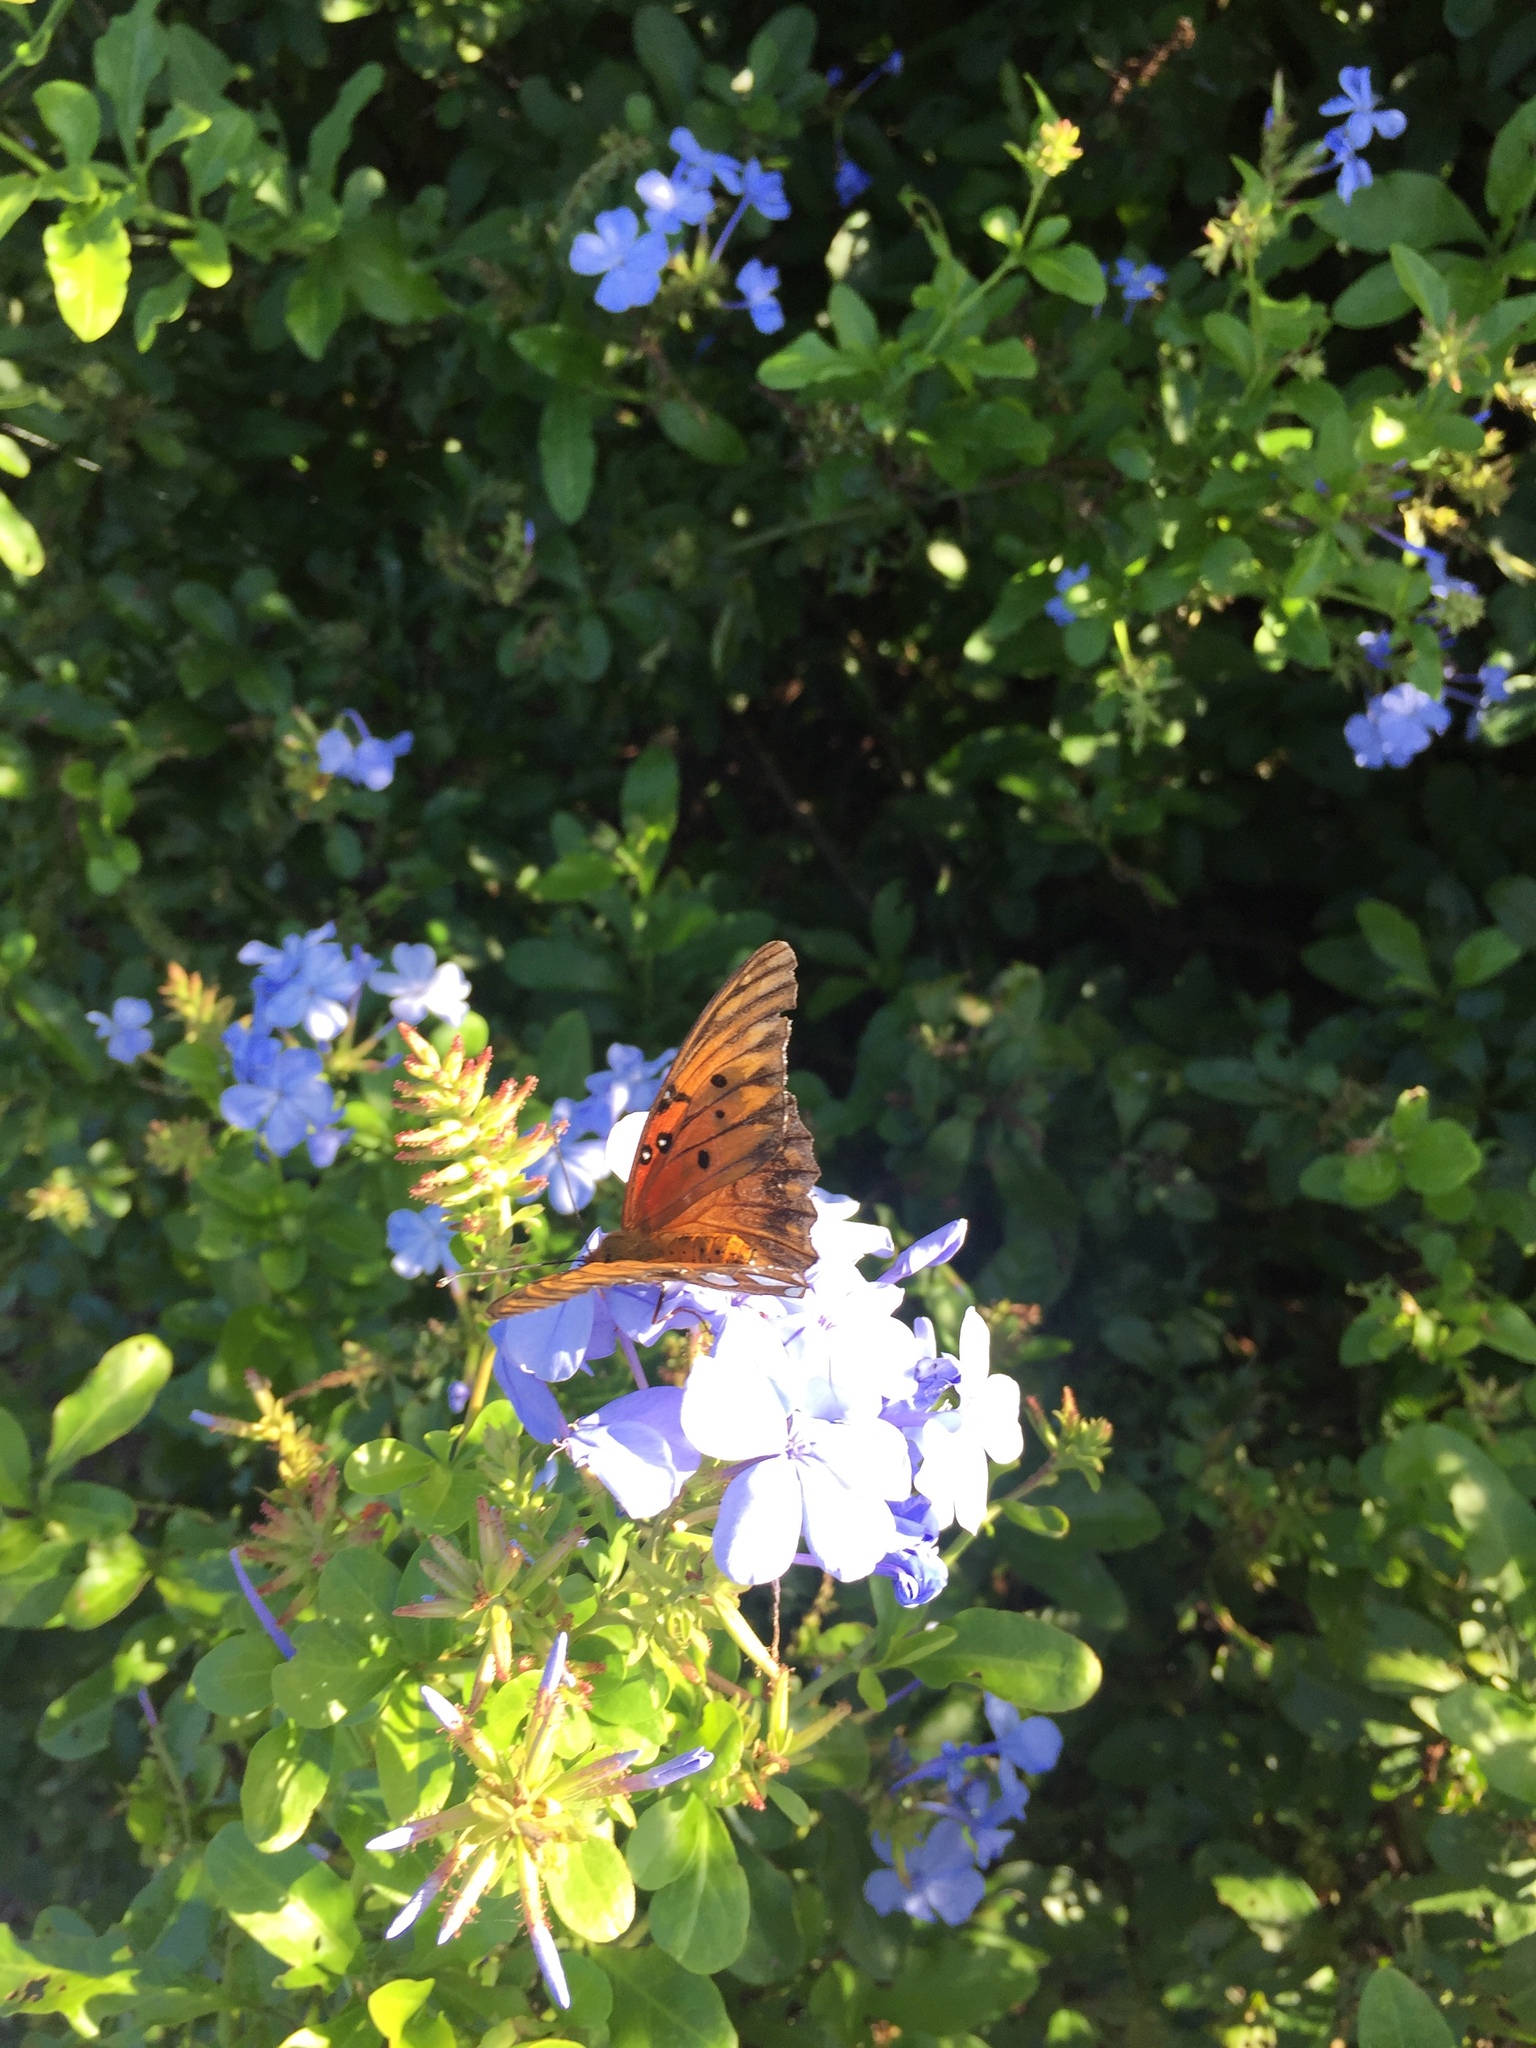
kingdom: Animalia
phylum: Arthropoda
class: Insecta
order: Lepidoptera
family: Nymphalidae
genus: Dione
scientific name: Dione vanillae
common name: Gulf fritillary
